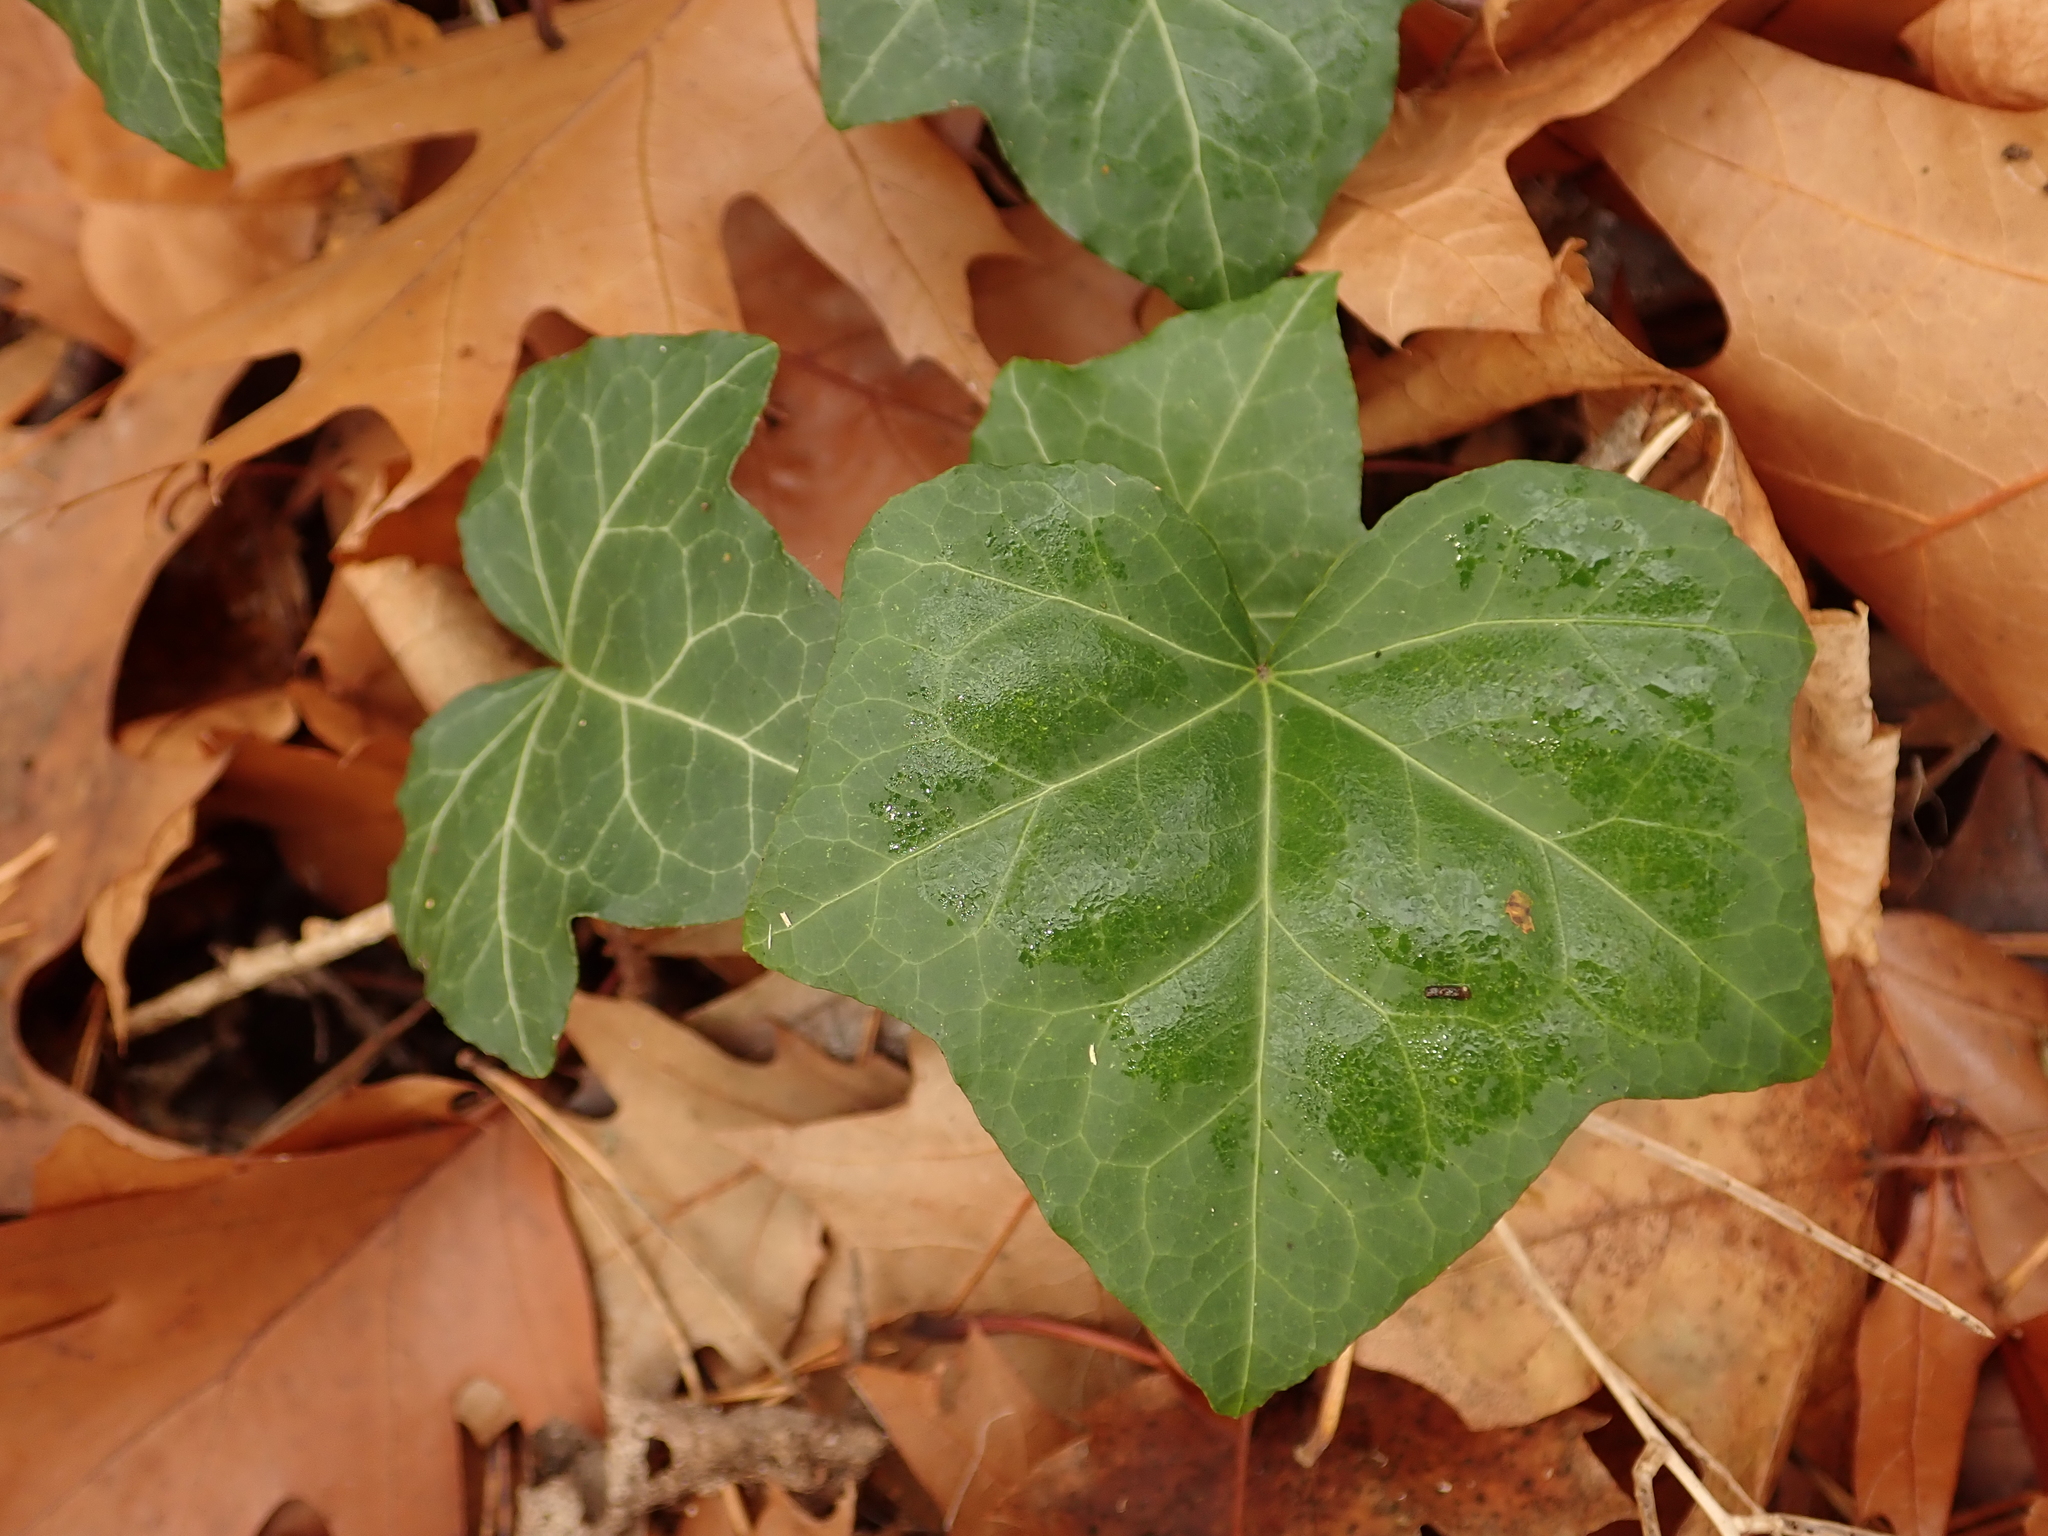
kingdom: Plantae
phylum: Tracheophyta
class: Magnoliopsida
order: Apiales
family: Araliaceae
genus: Hedera
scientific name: Hedera helix
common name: Ivy
